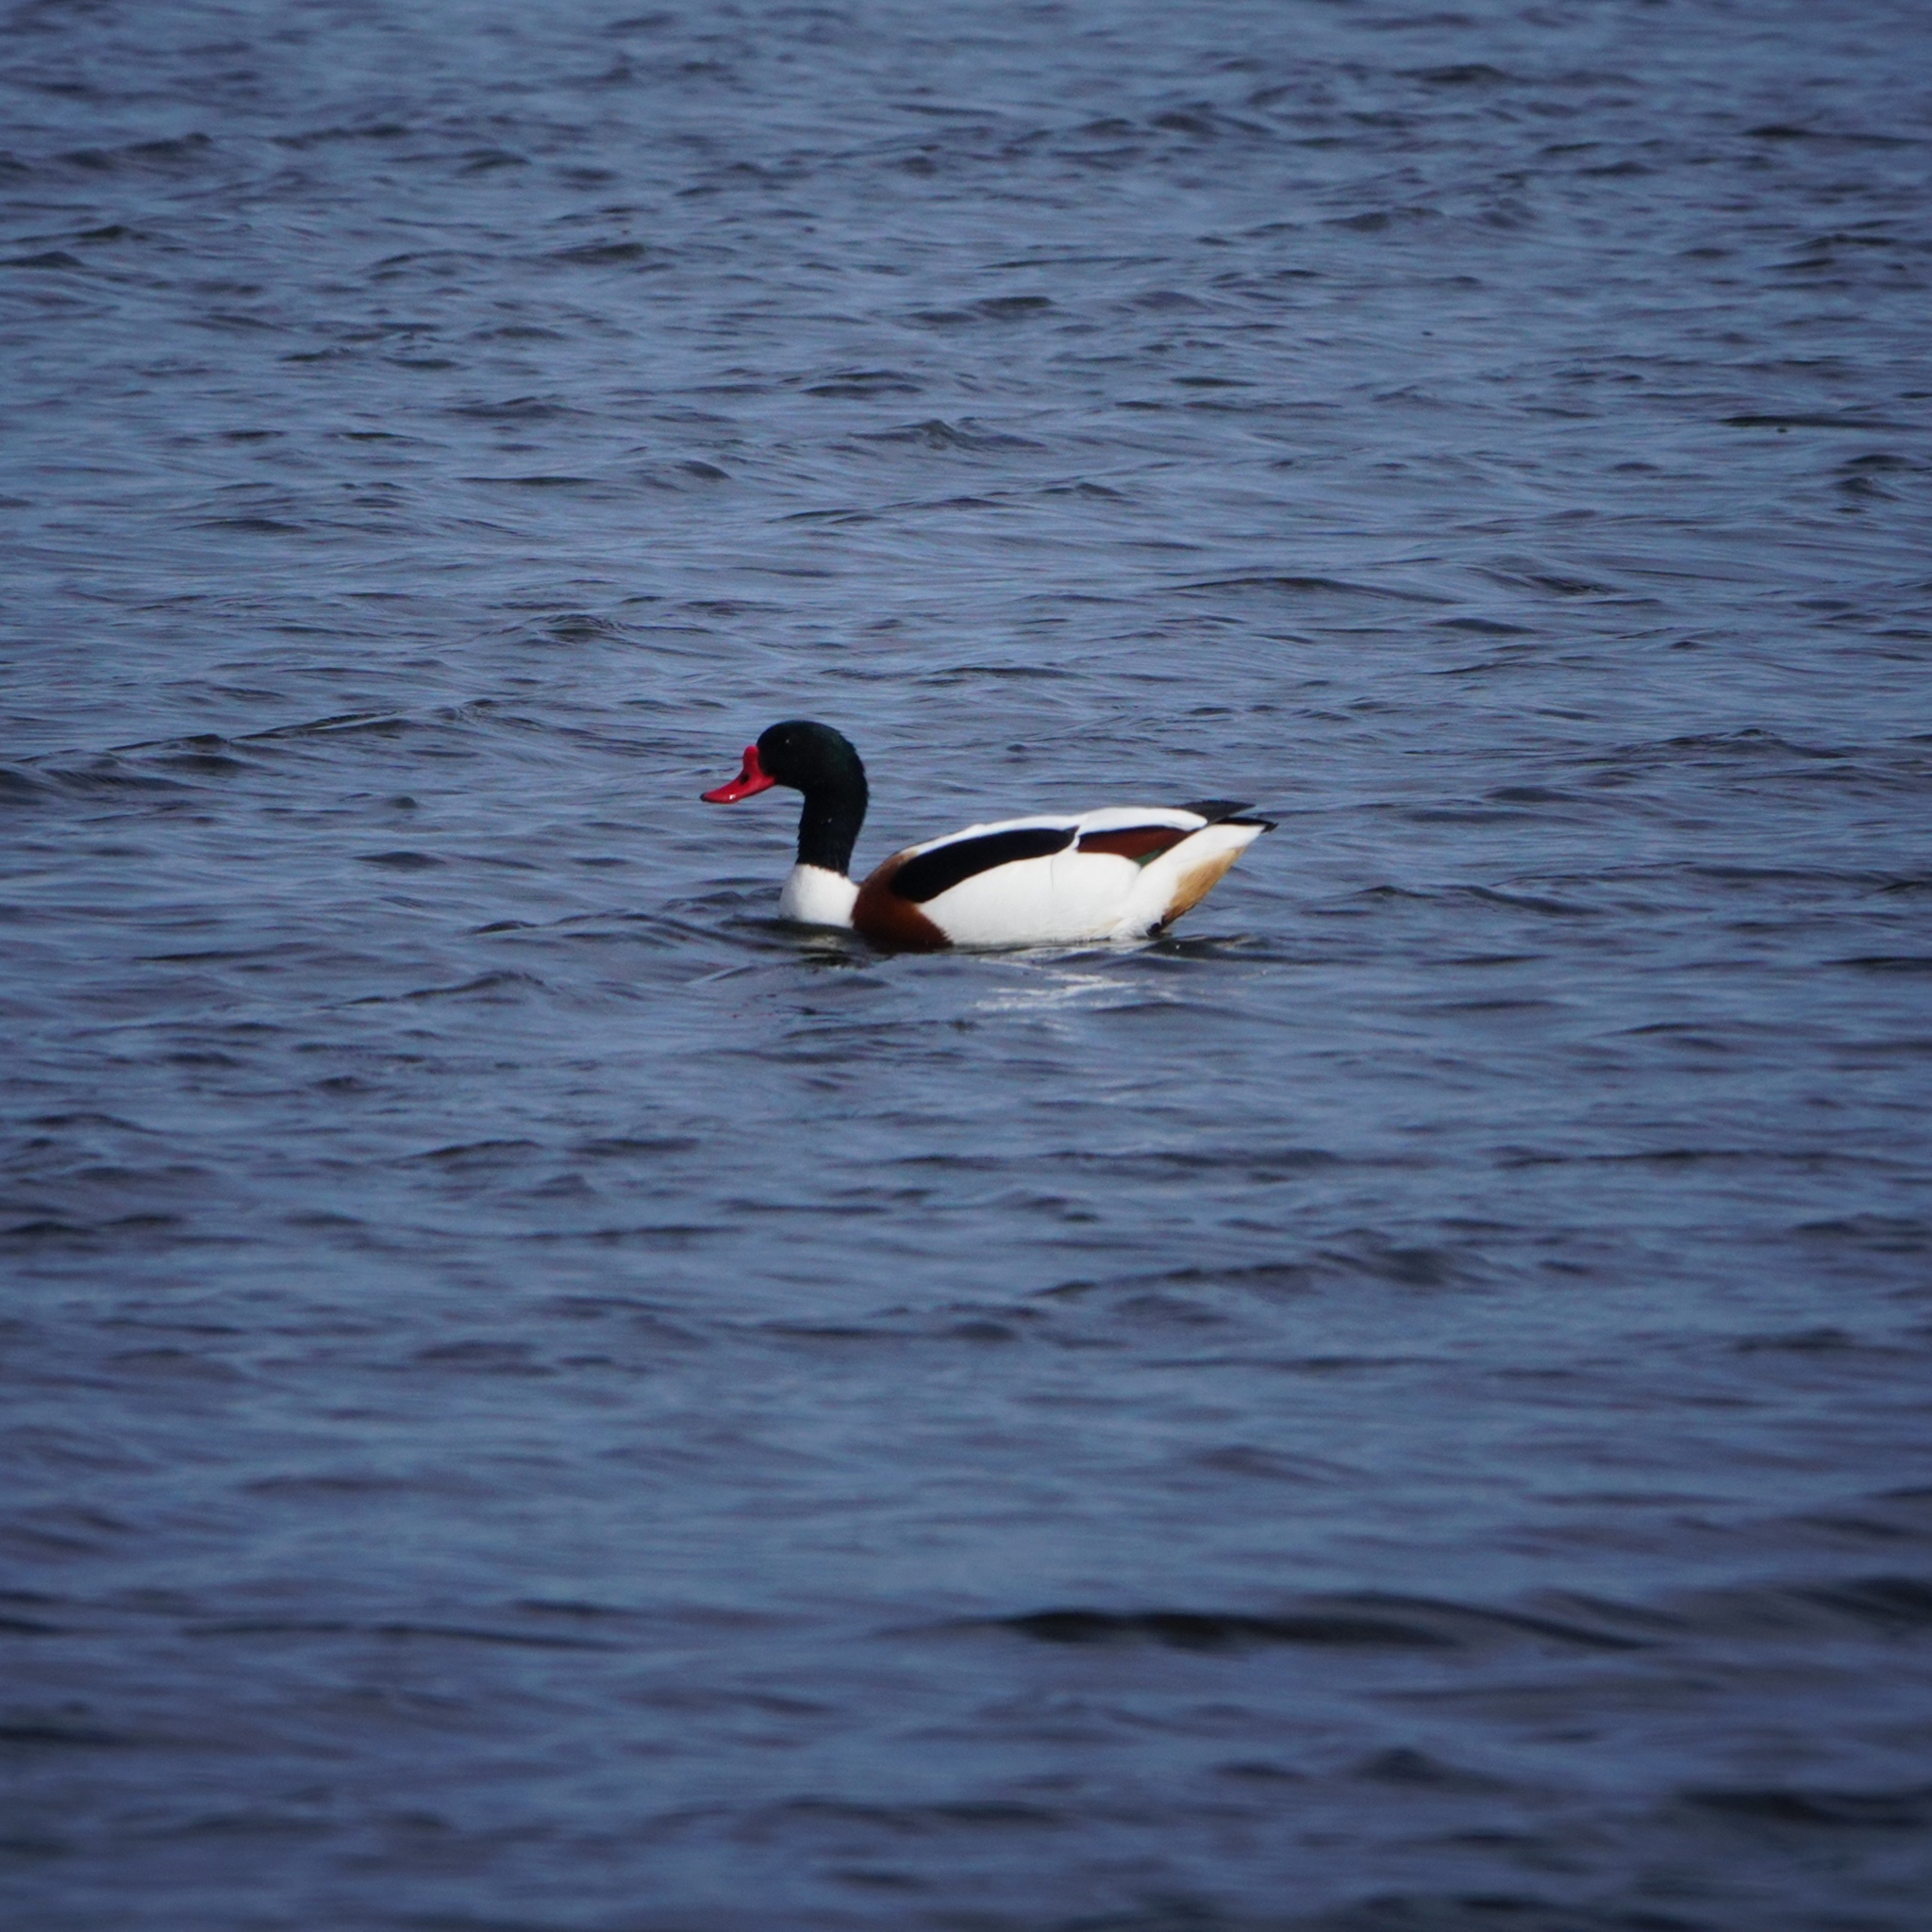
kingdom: Animalia
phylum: Chordata
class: Aves
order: Anseriformes
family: Anatidae
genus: Tadorna
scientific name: Tadorna tadorna
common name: Common shelduck
